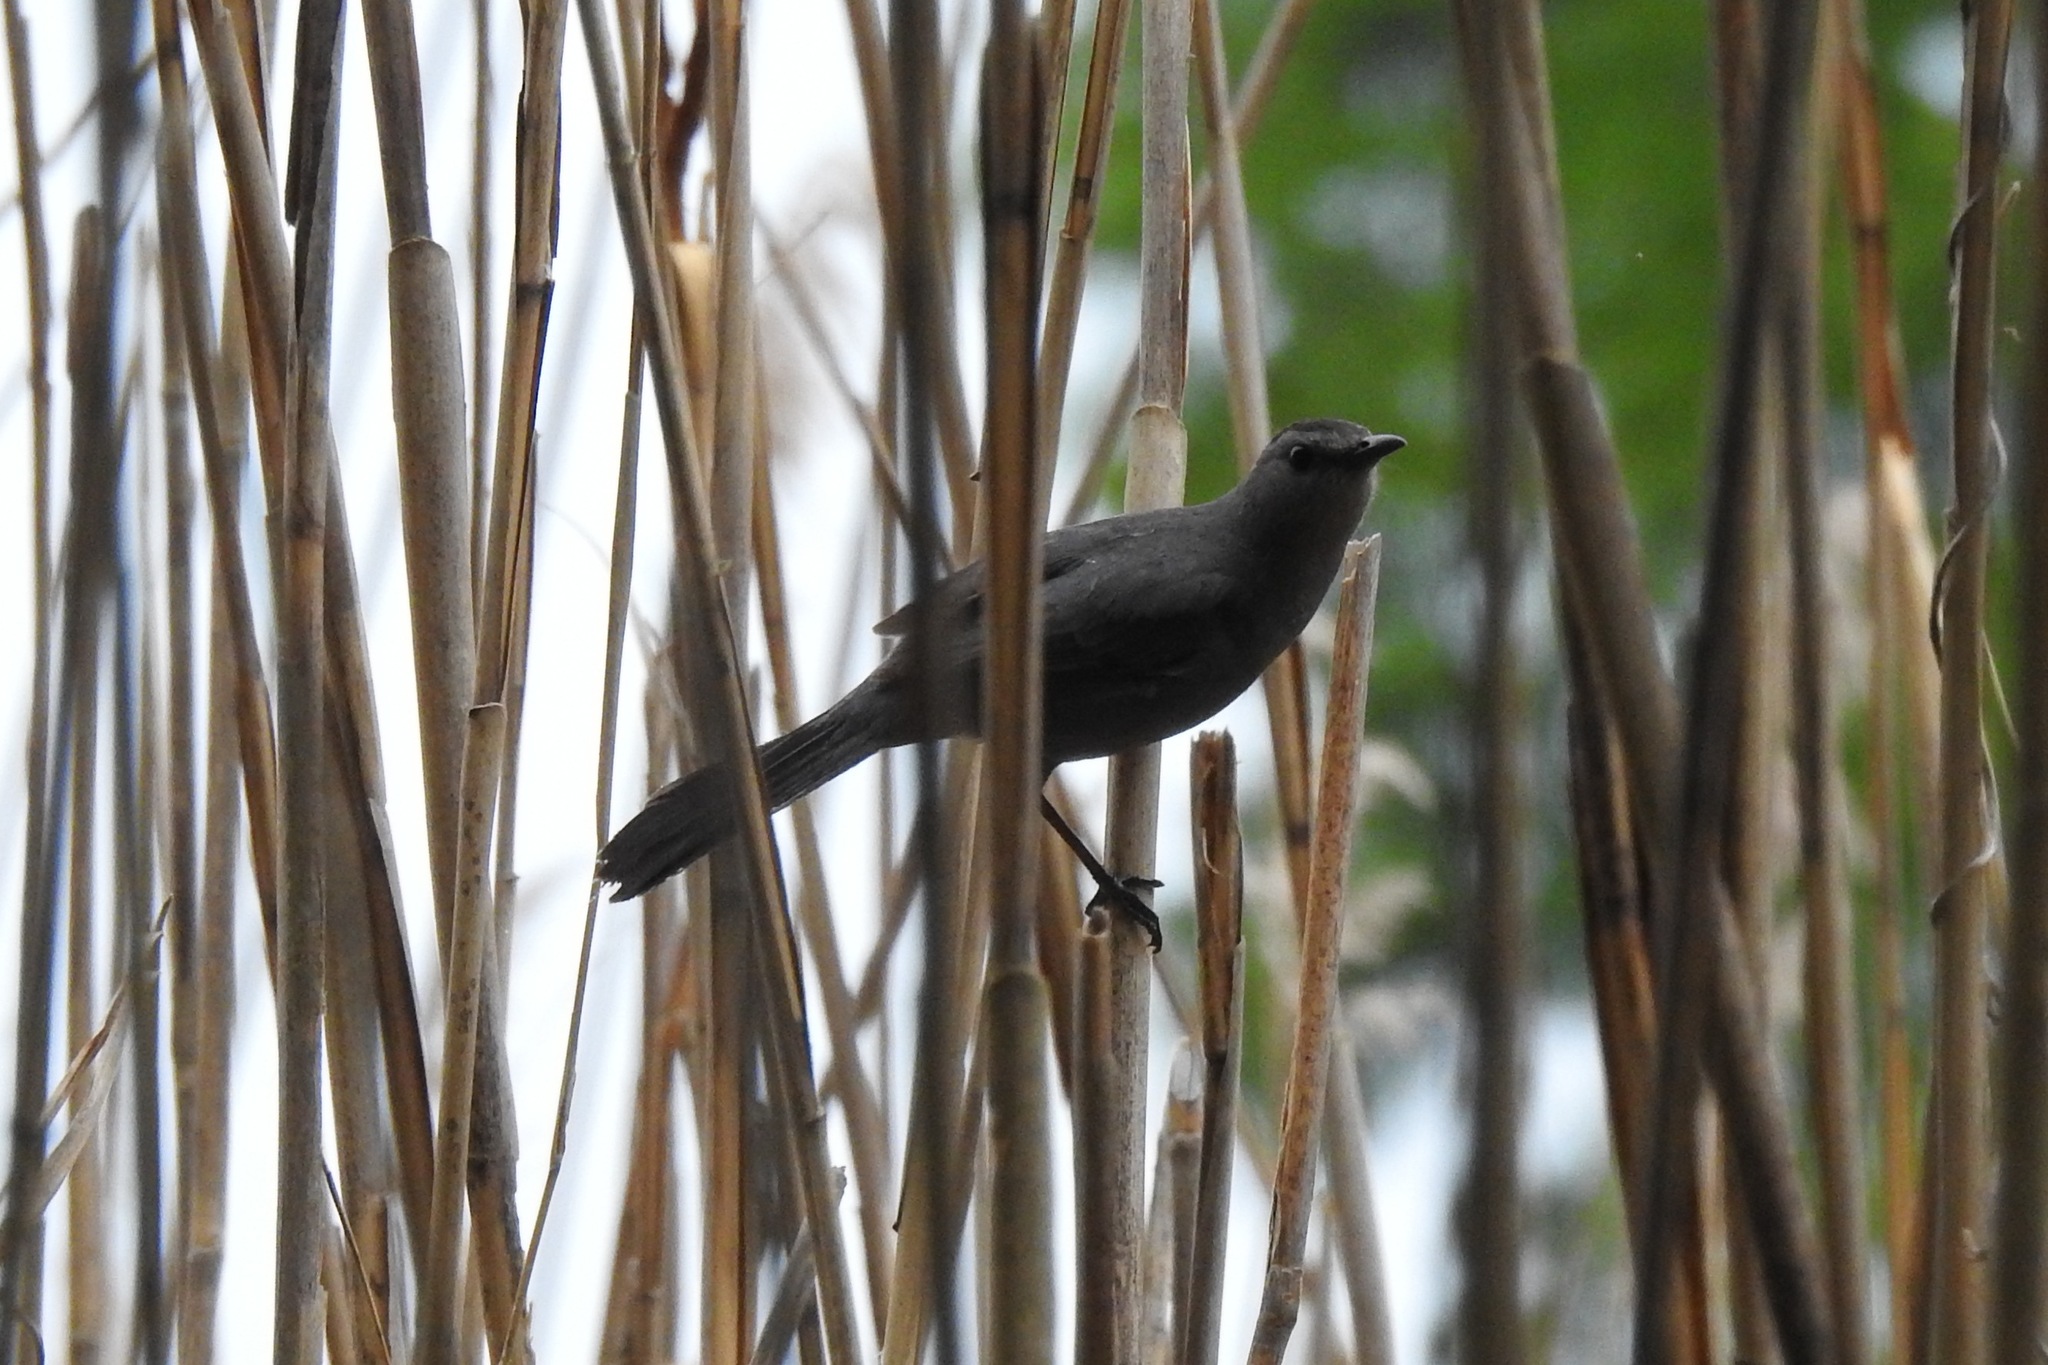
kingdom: Animalia
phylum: Chordata
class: Aves
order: Passeriformes
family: Mimidae
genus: Dumetella
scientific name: Dumetella carolinensis
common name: Gray catbird
